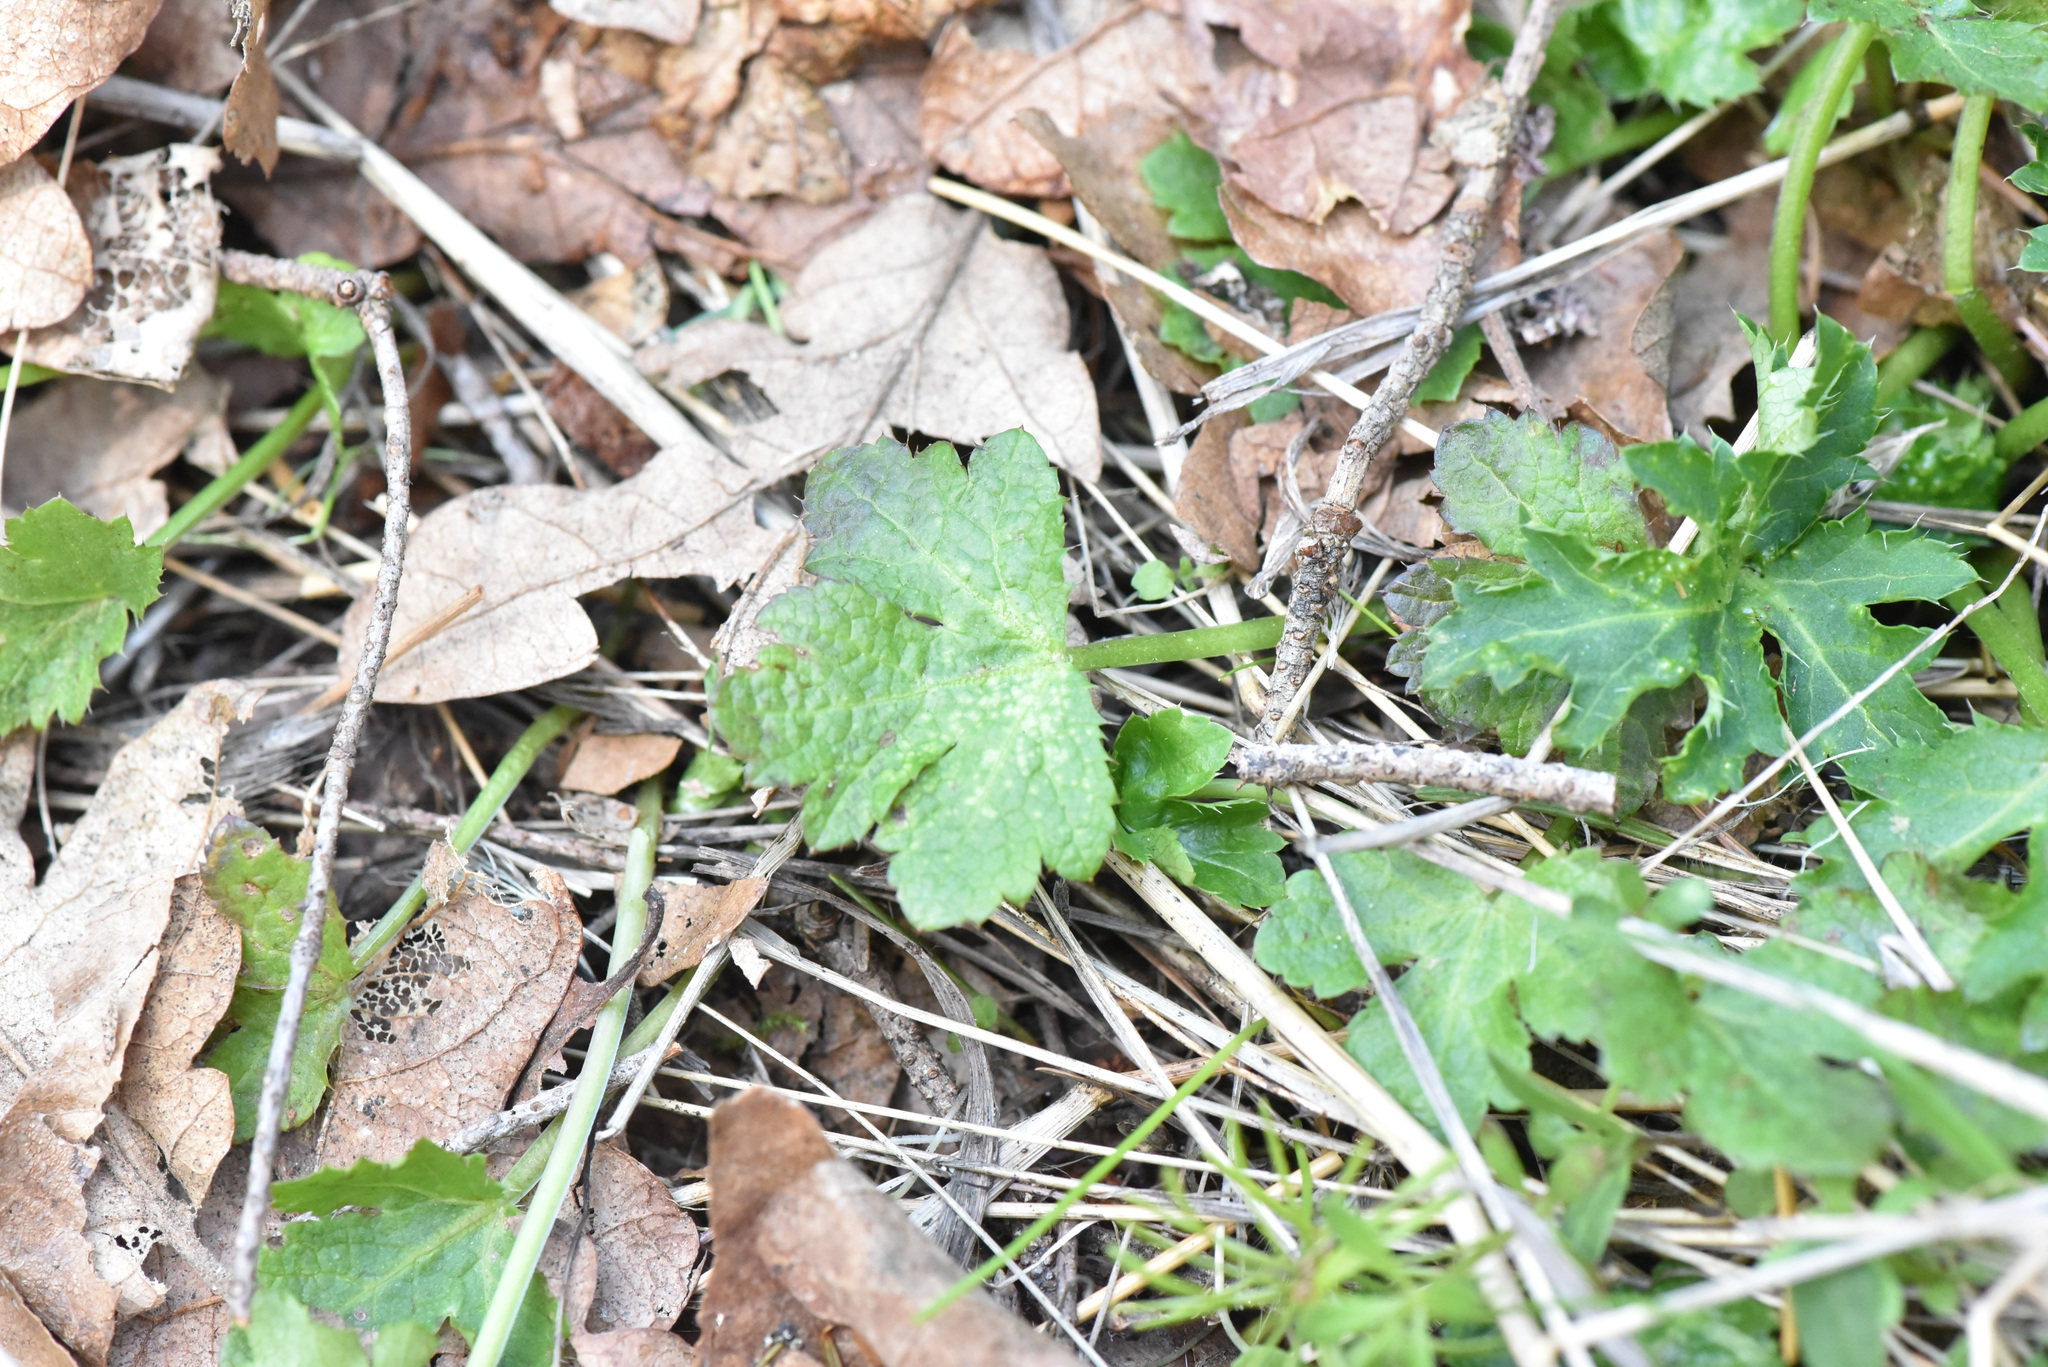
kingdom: Plantae
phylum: Tracheophyta
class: Magnoliopsida
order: Apiales
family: Apiaceae
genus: Sanicula
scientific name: Sanicula crassicaulis
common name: Western snakeroot
